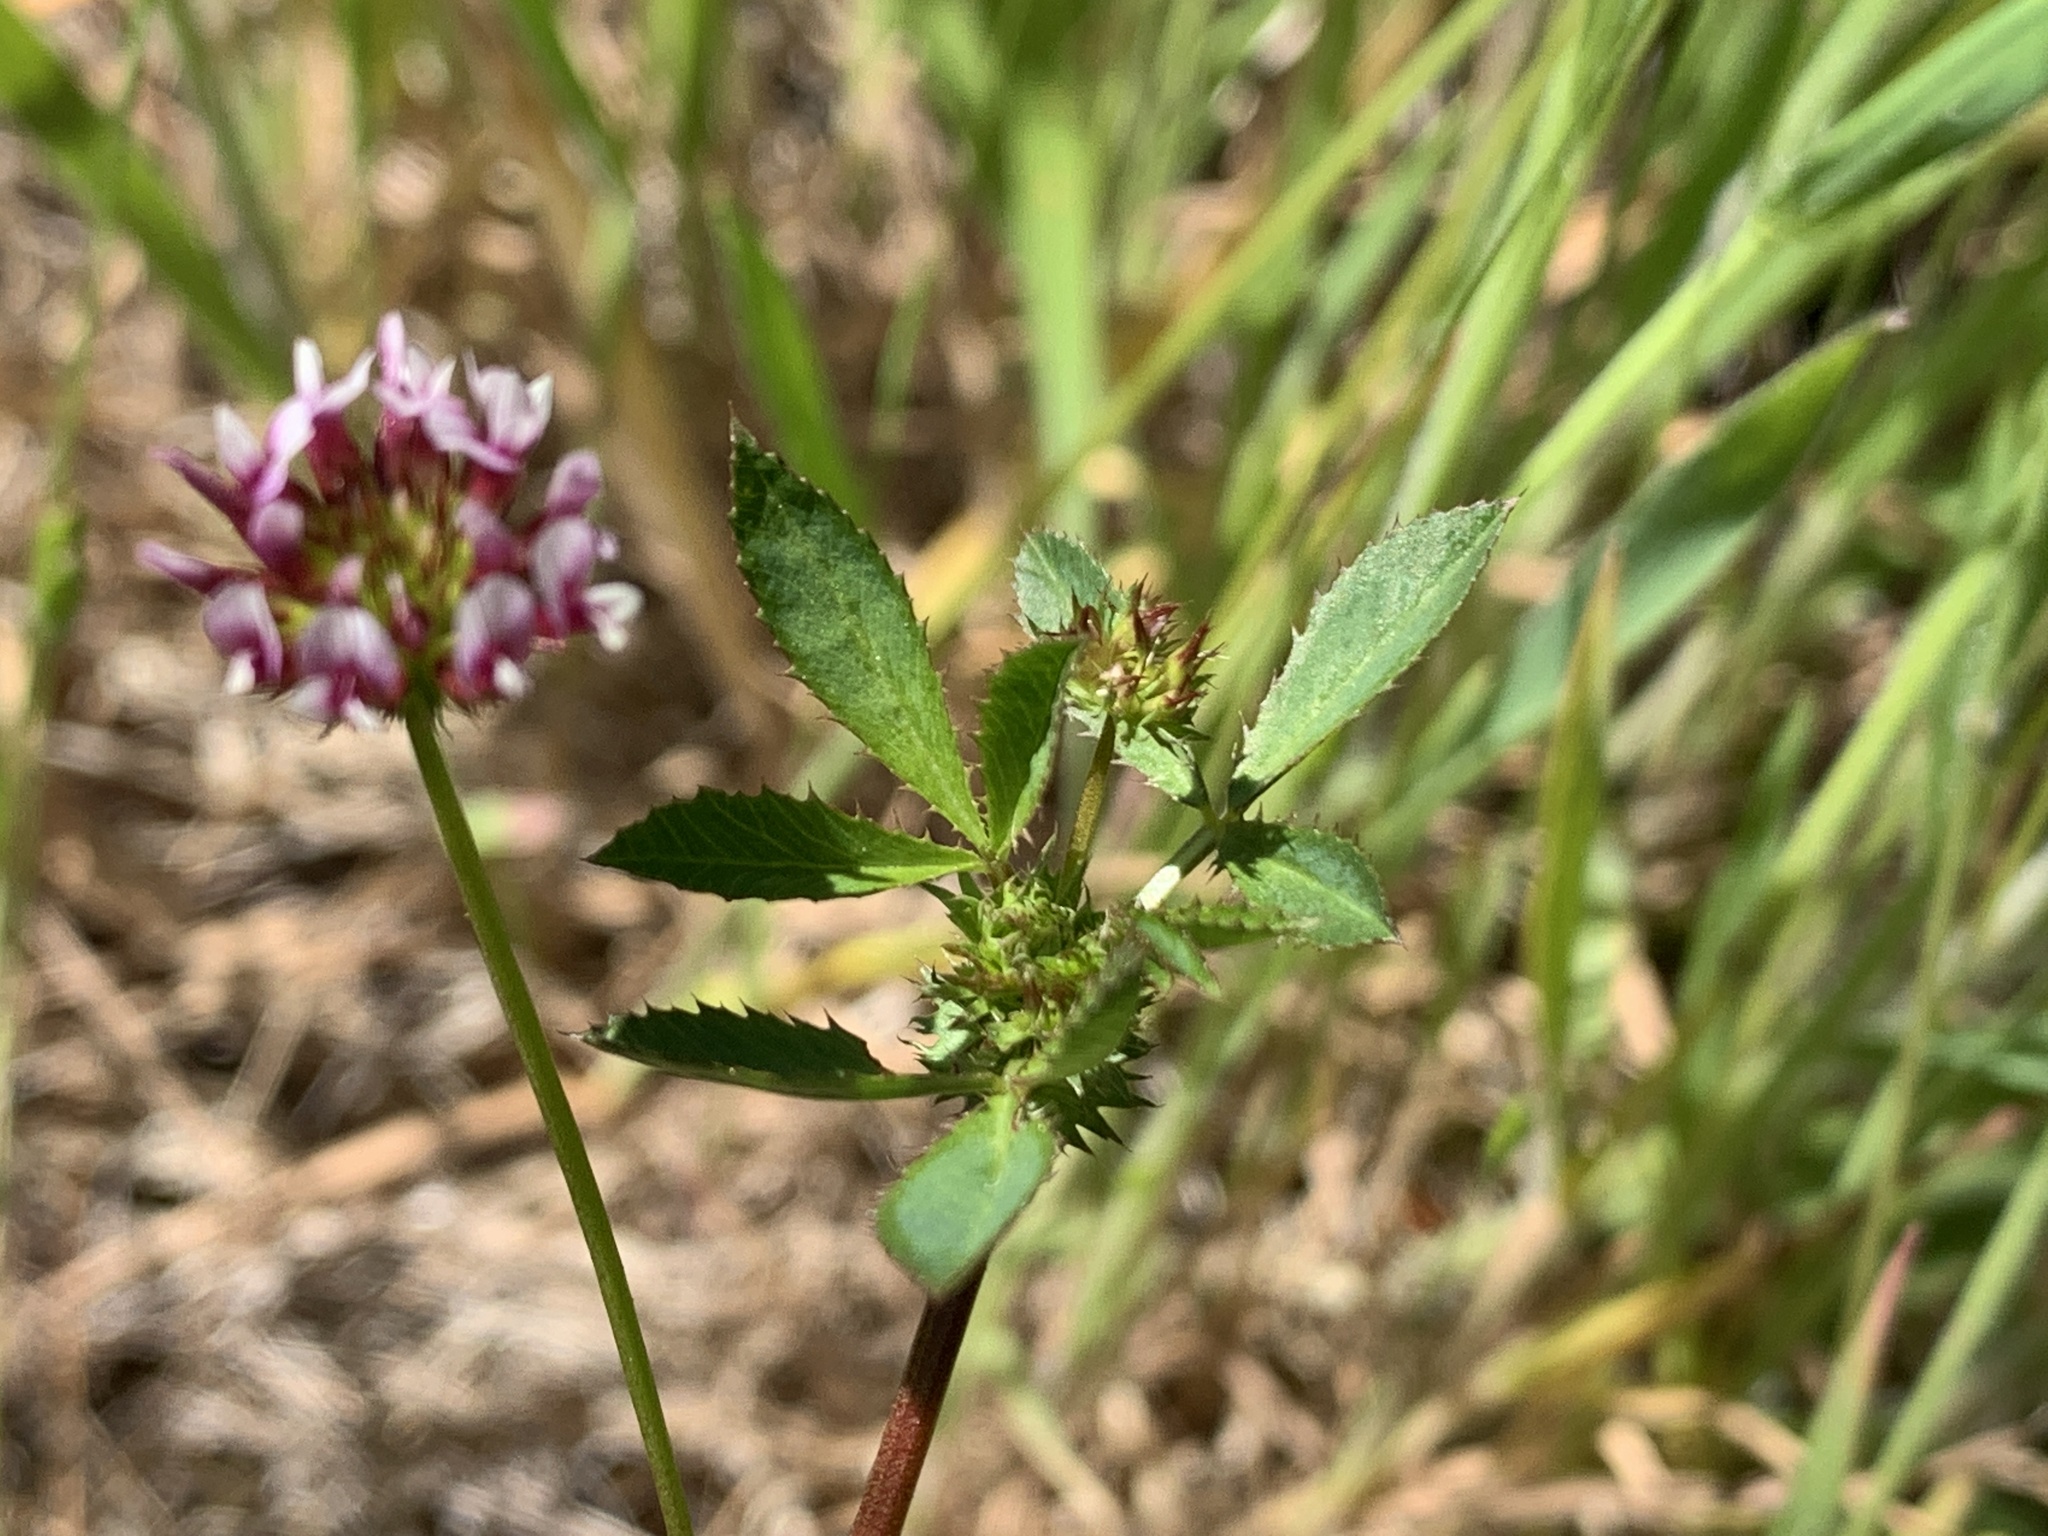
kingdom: Plantae
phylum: Tracheophyta
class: Magnoliopsida
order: Fabales
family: Fabaceae
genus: Trifolium
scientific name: Trifolium willdenovii
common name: Tomcat clover
